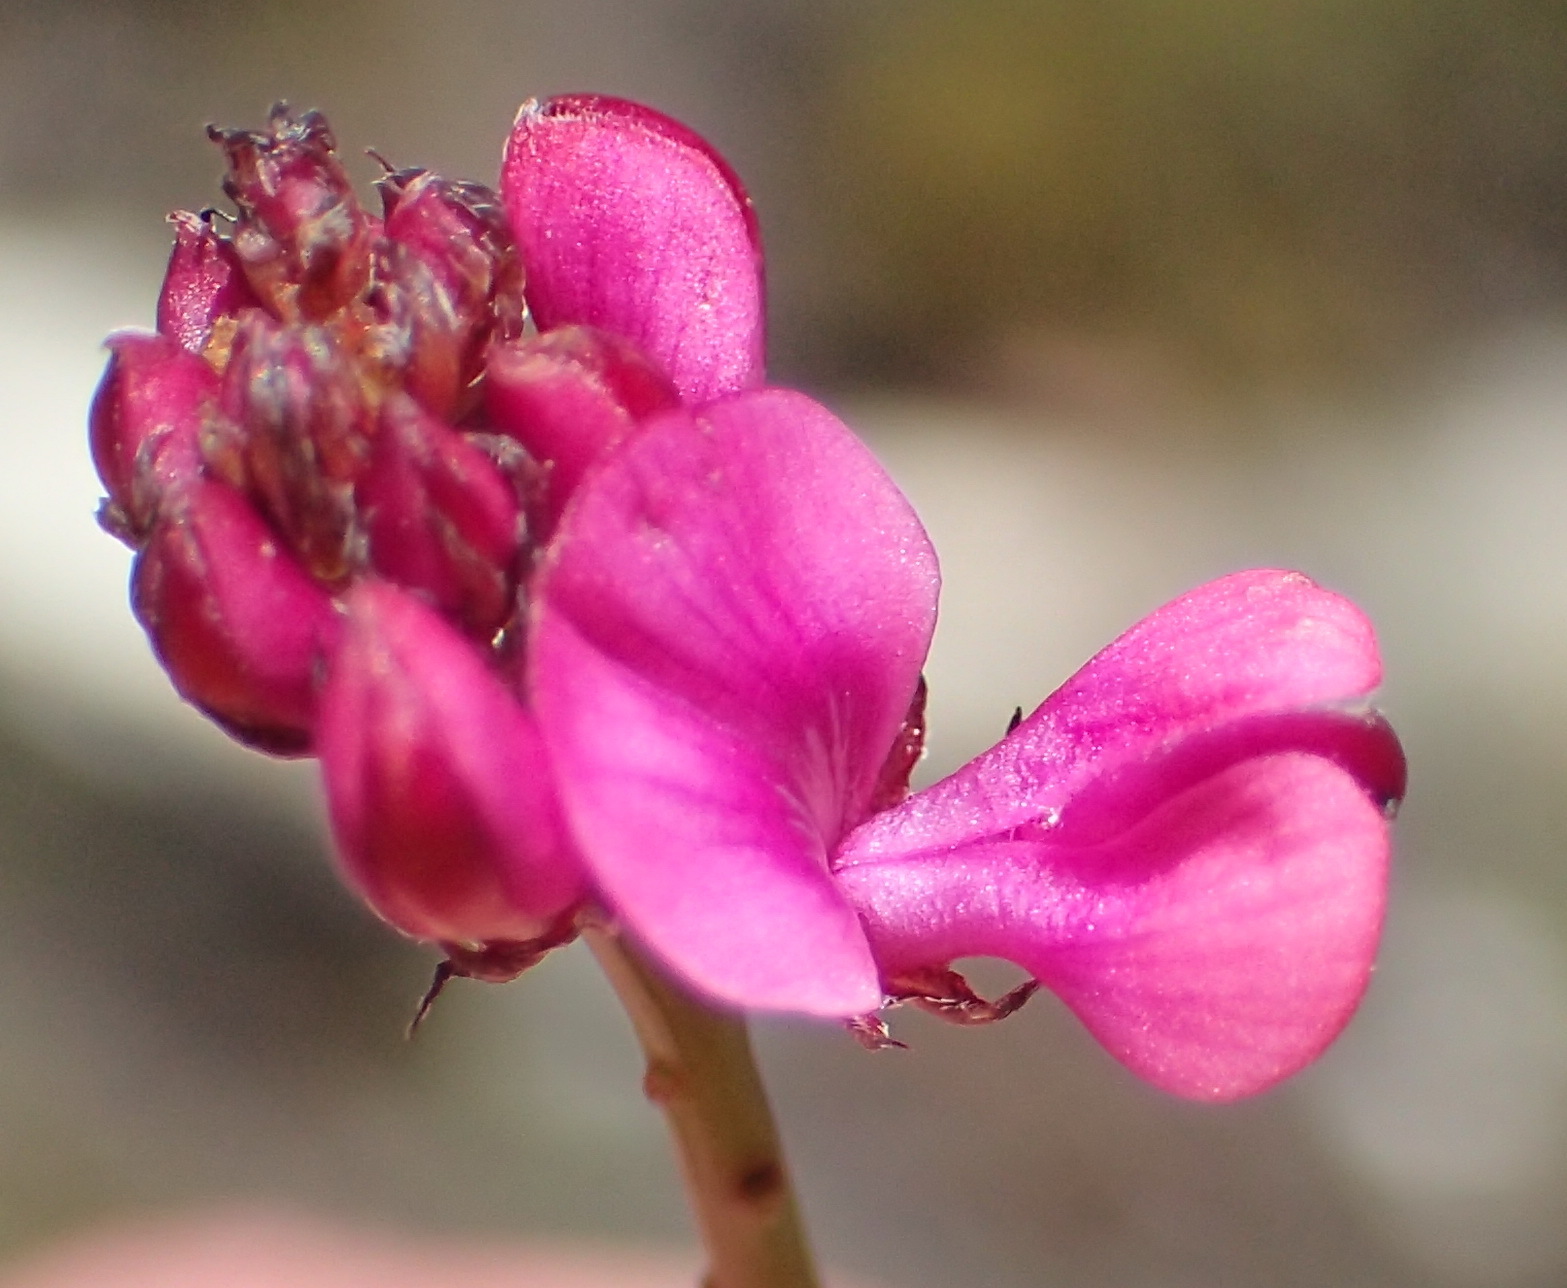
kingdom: Plantae
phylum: Tracheophyta
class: Magnoliopsida
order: Fabales
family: Fabaceae
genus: Indigofera
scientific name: Indigofera
